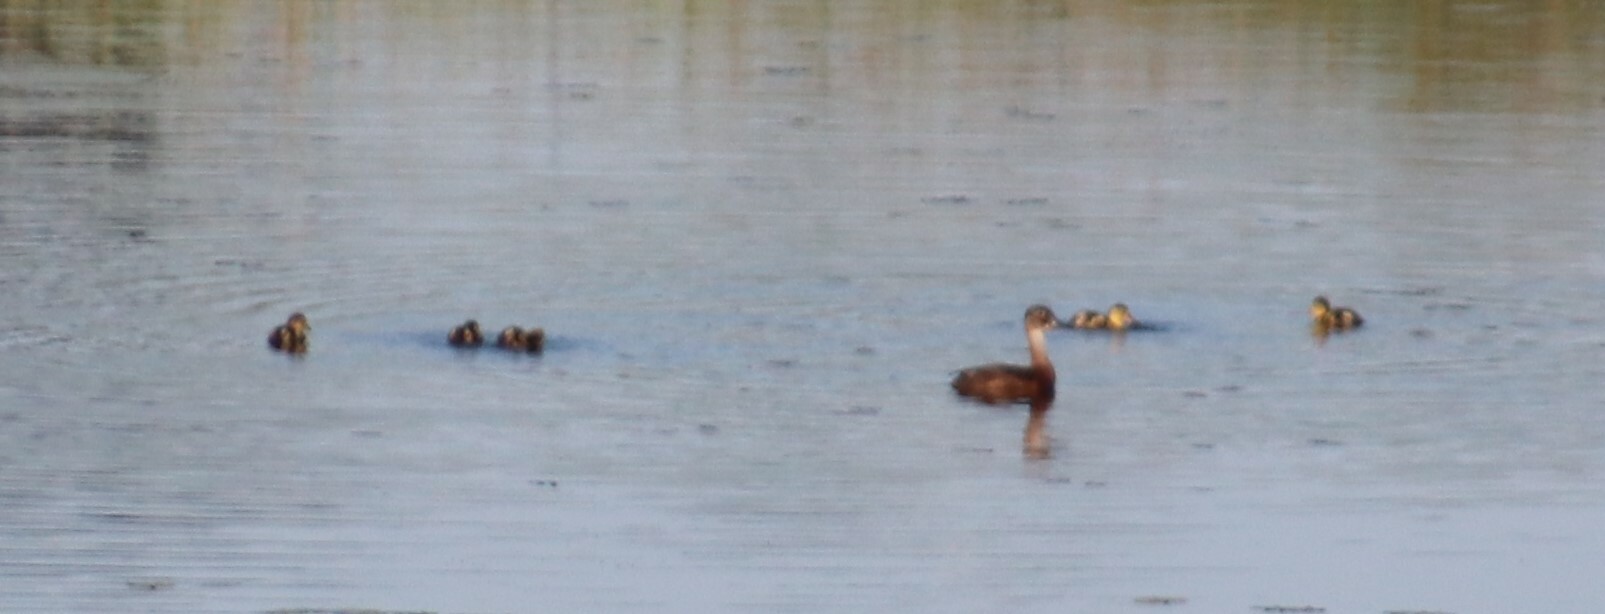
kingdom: Animalia
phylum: Chordata
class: Aves
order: Anseriformes
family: Anatidae
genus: Aythya
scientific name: Aythya collaris
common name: Ring-necked duck
